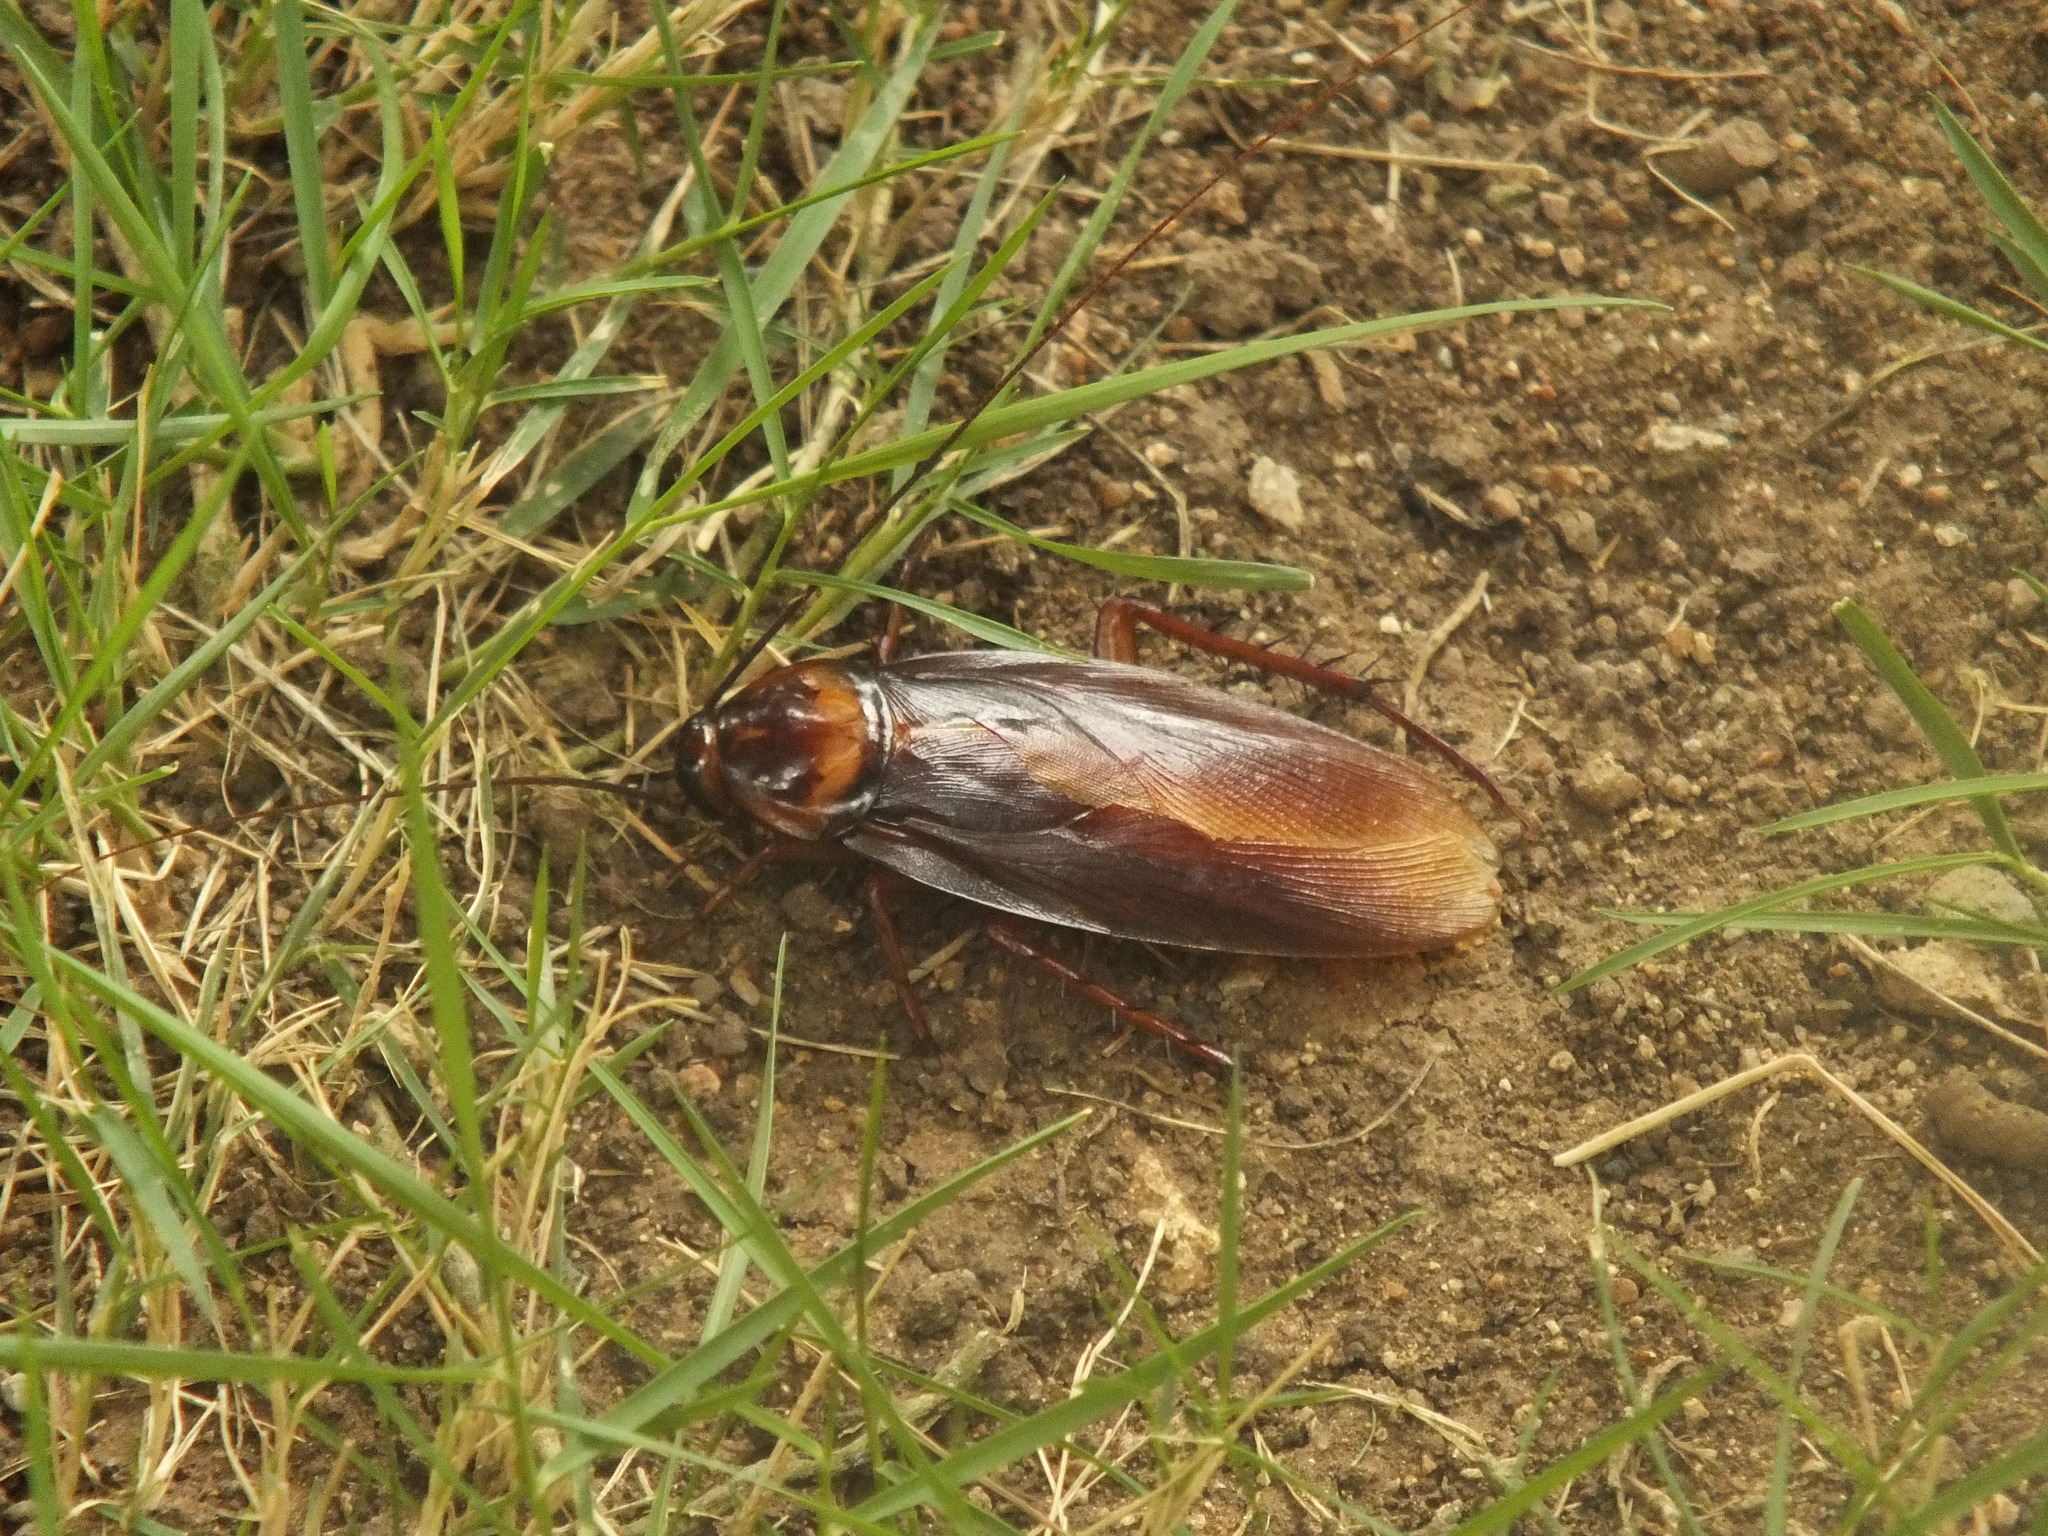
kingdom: Animalia
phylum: Arthropoda
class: Insecta
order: Blattodea
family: Blattidae
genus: Periplaneta
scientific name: Periplaneta americana
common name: American cockroach
